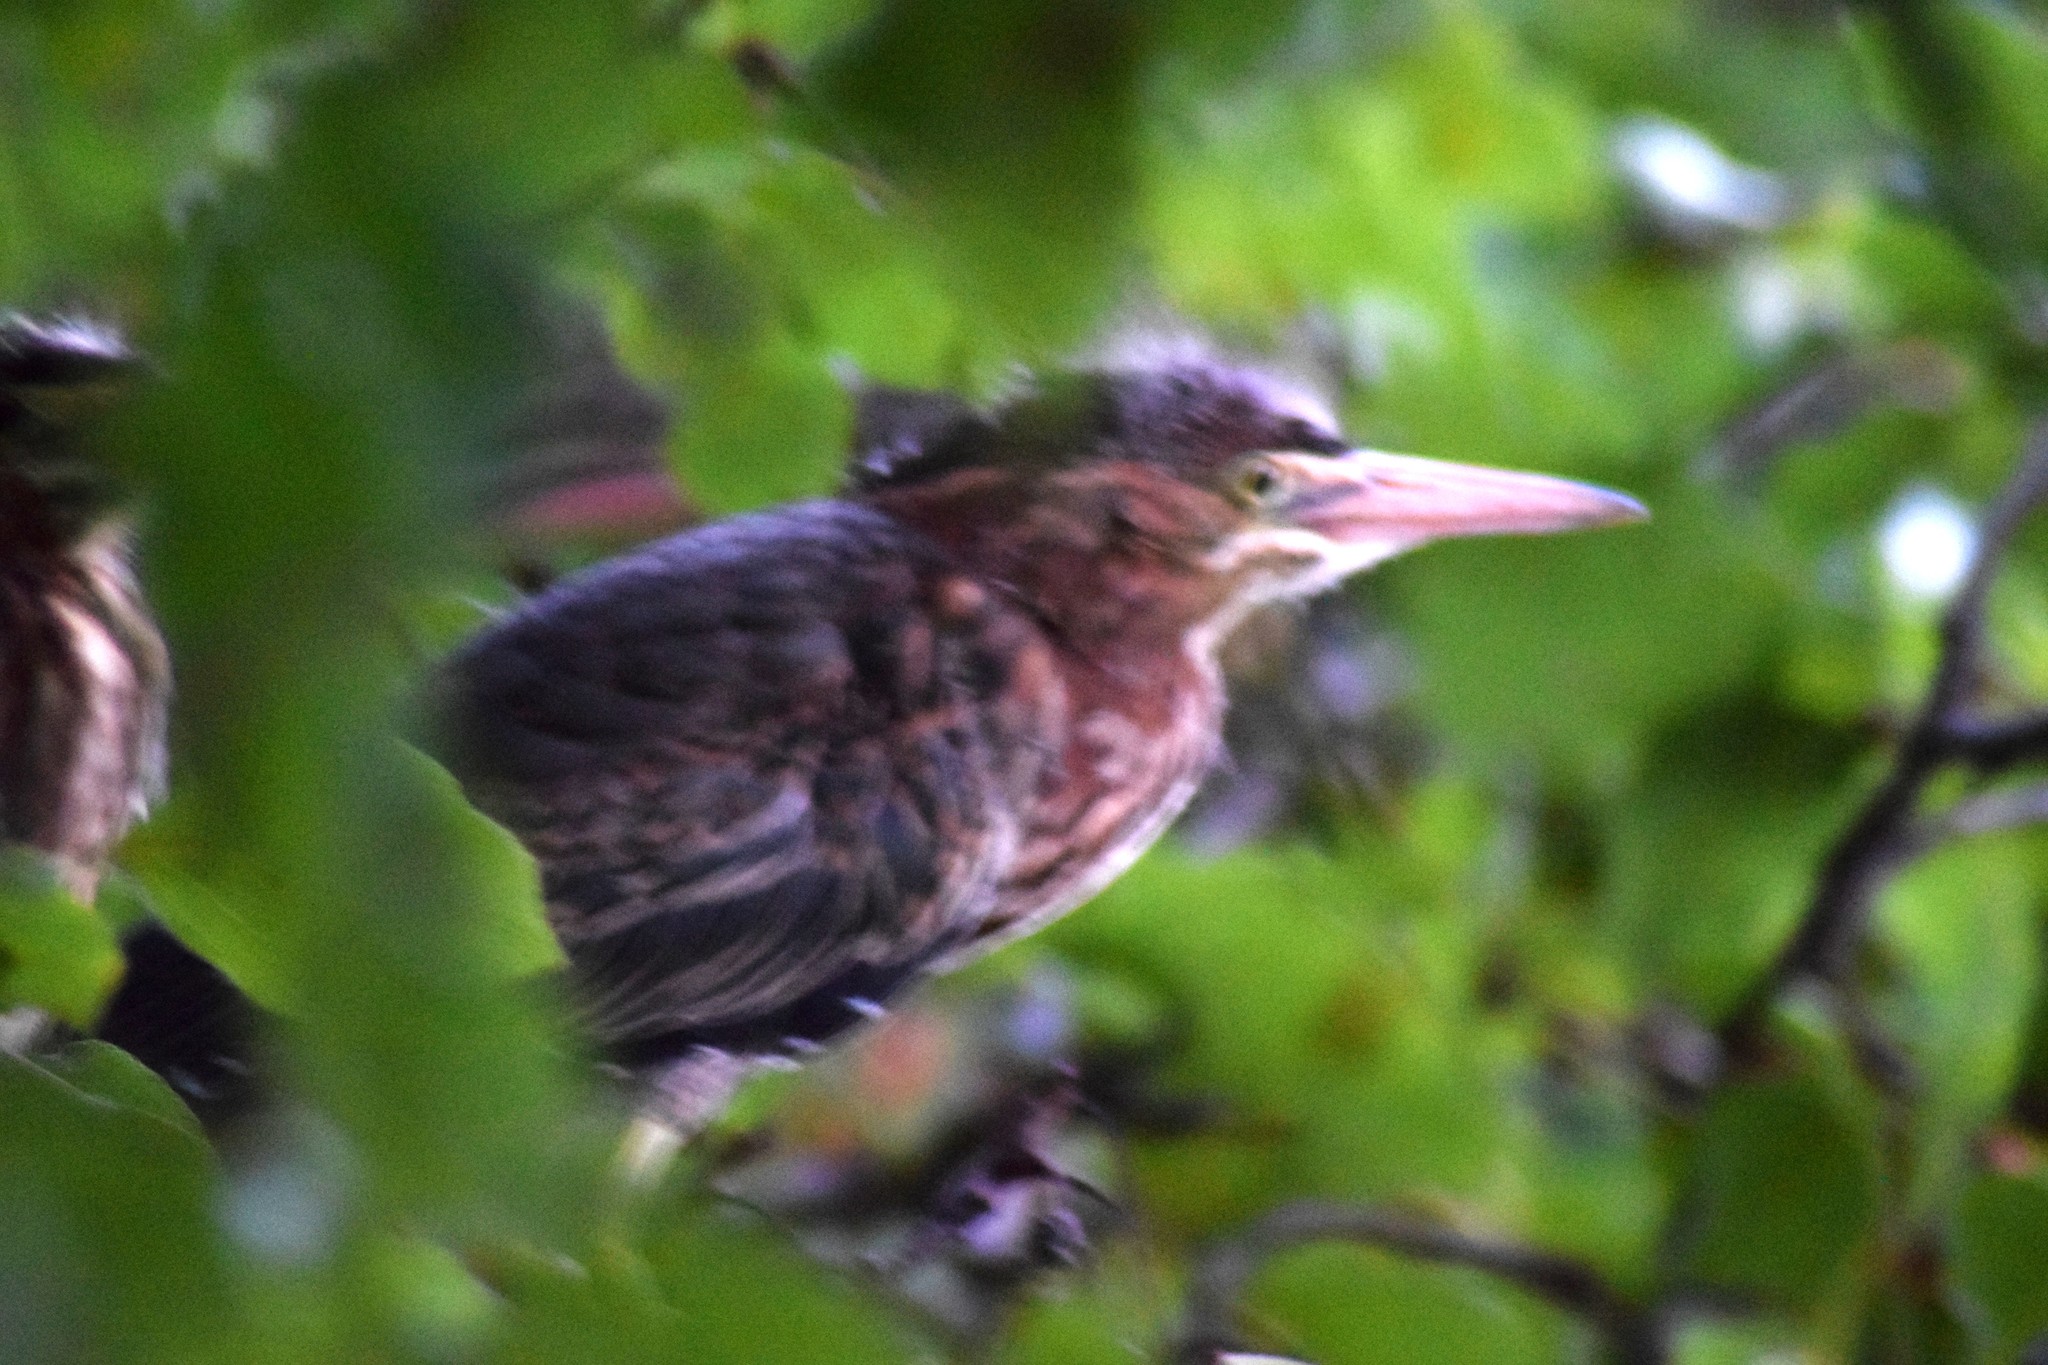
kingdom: Animalia
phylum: Chordata
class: Aves
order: Pelecaniformes
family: Ardeidae
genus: Butorides
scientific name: Butorides virescens
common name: Green heron
